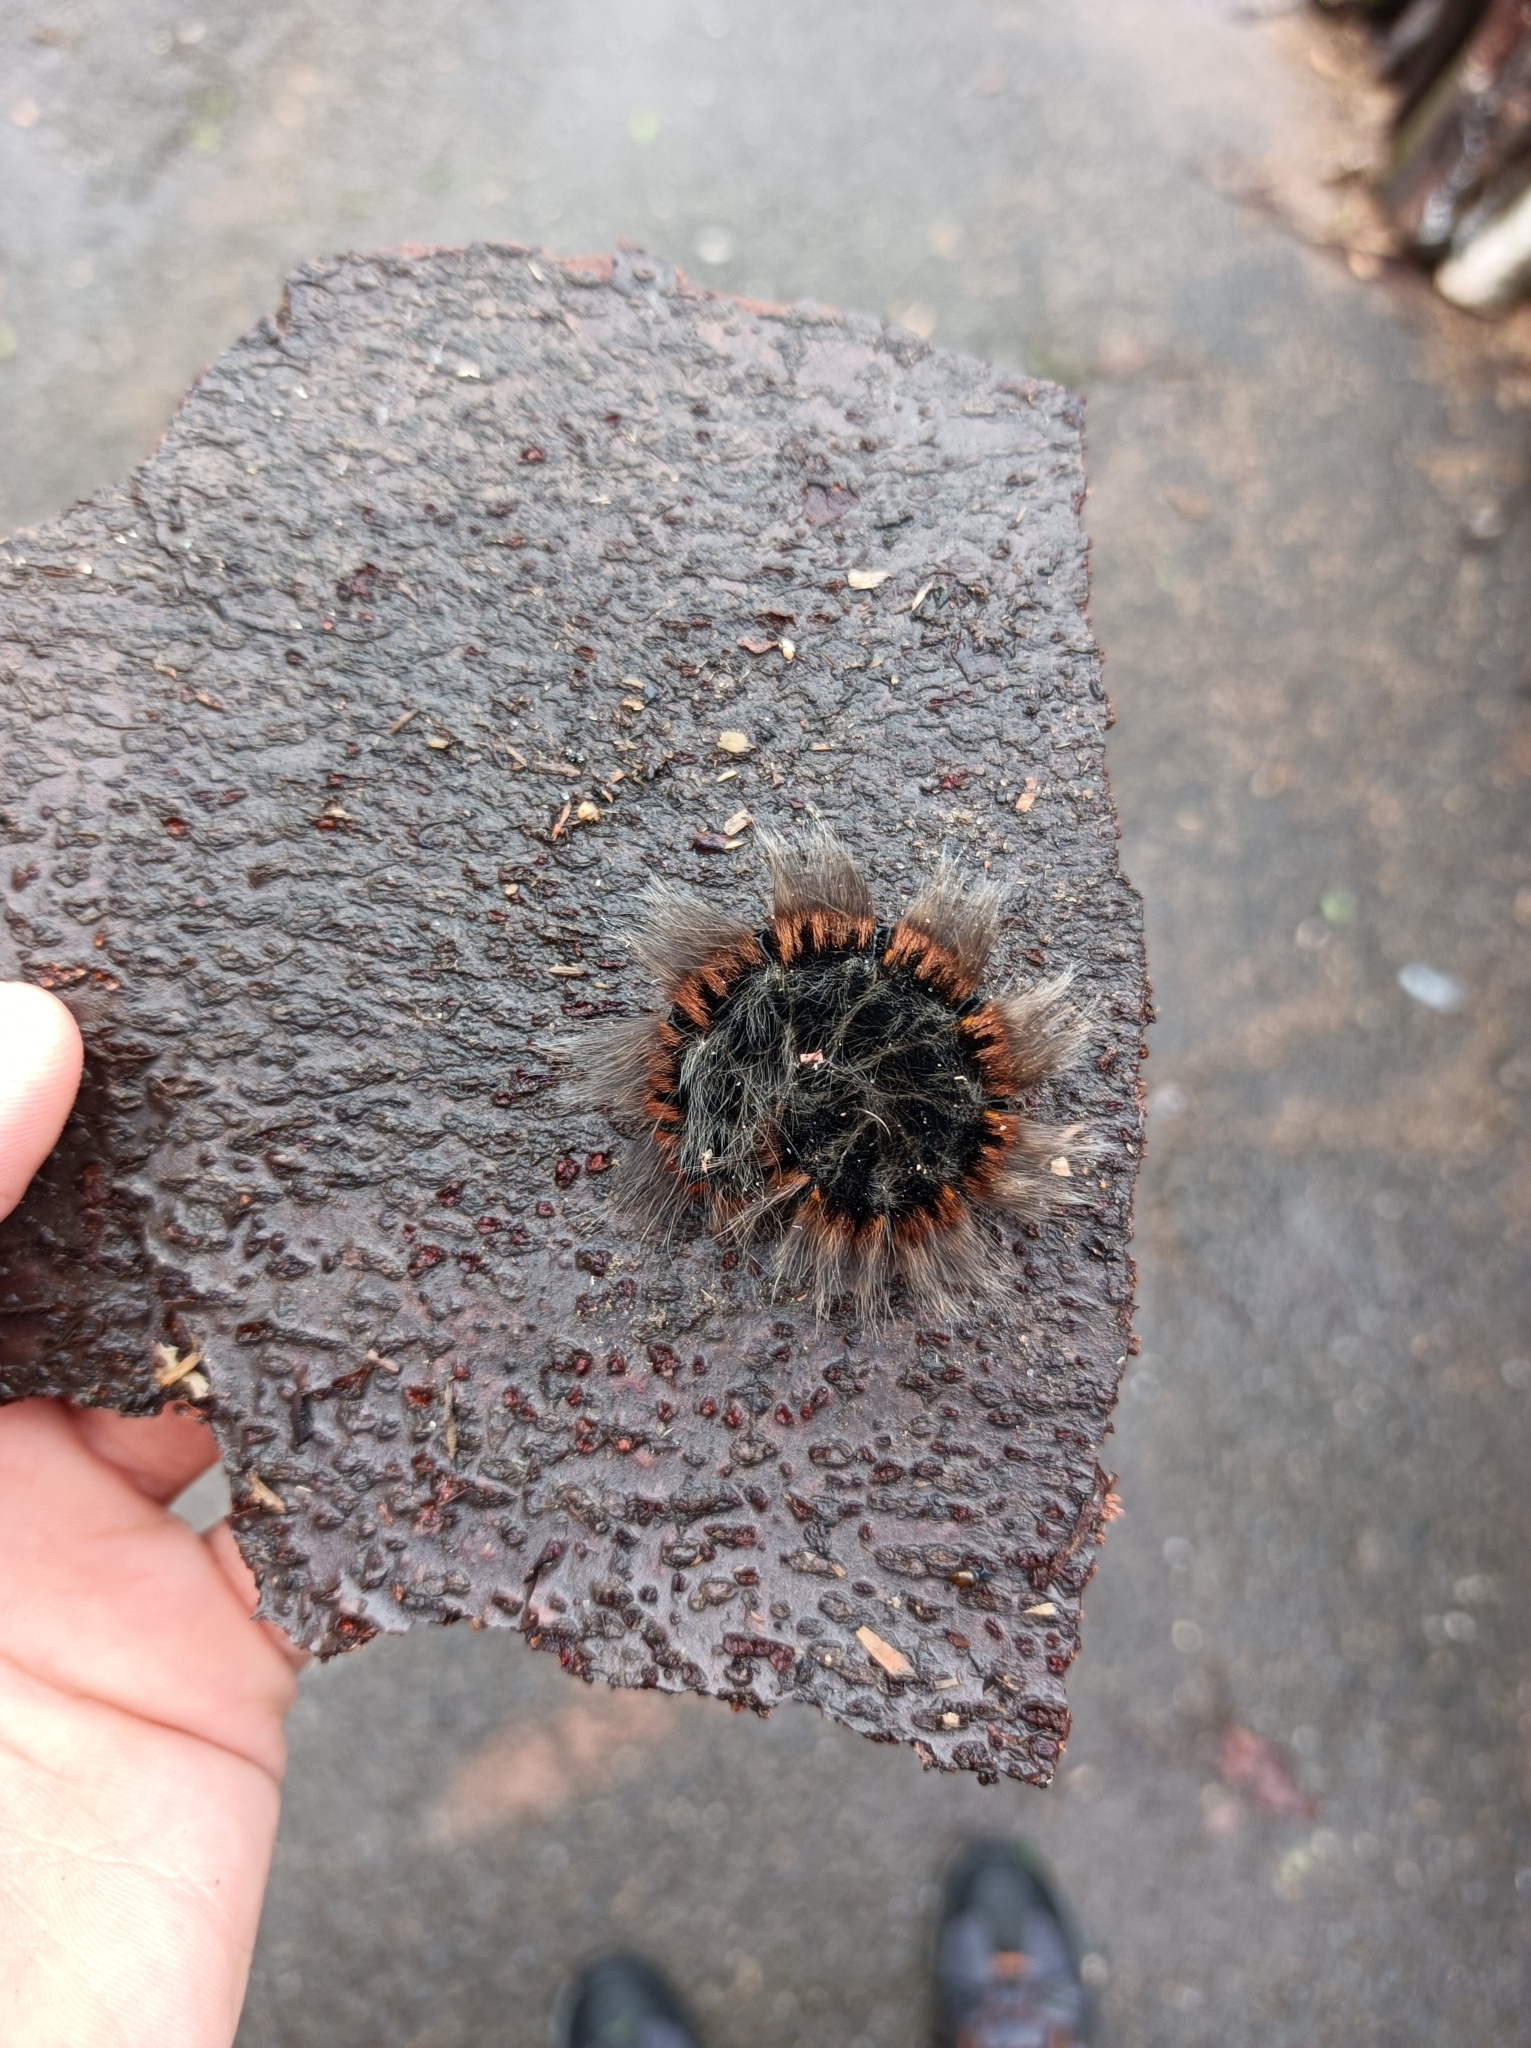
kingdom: Animalia
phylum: Arthropoda
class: Insecta
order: Lepidoptera
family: Lasiocampidae
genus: Macrothylacia
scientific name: Macrothylacia rubi
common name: Fox moth
